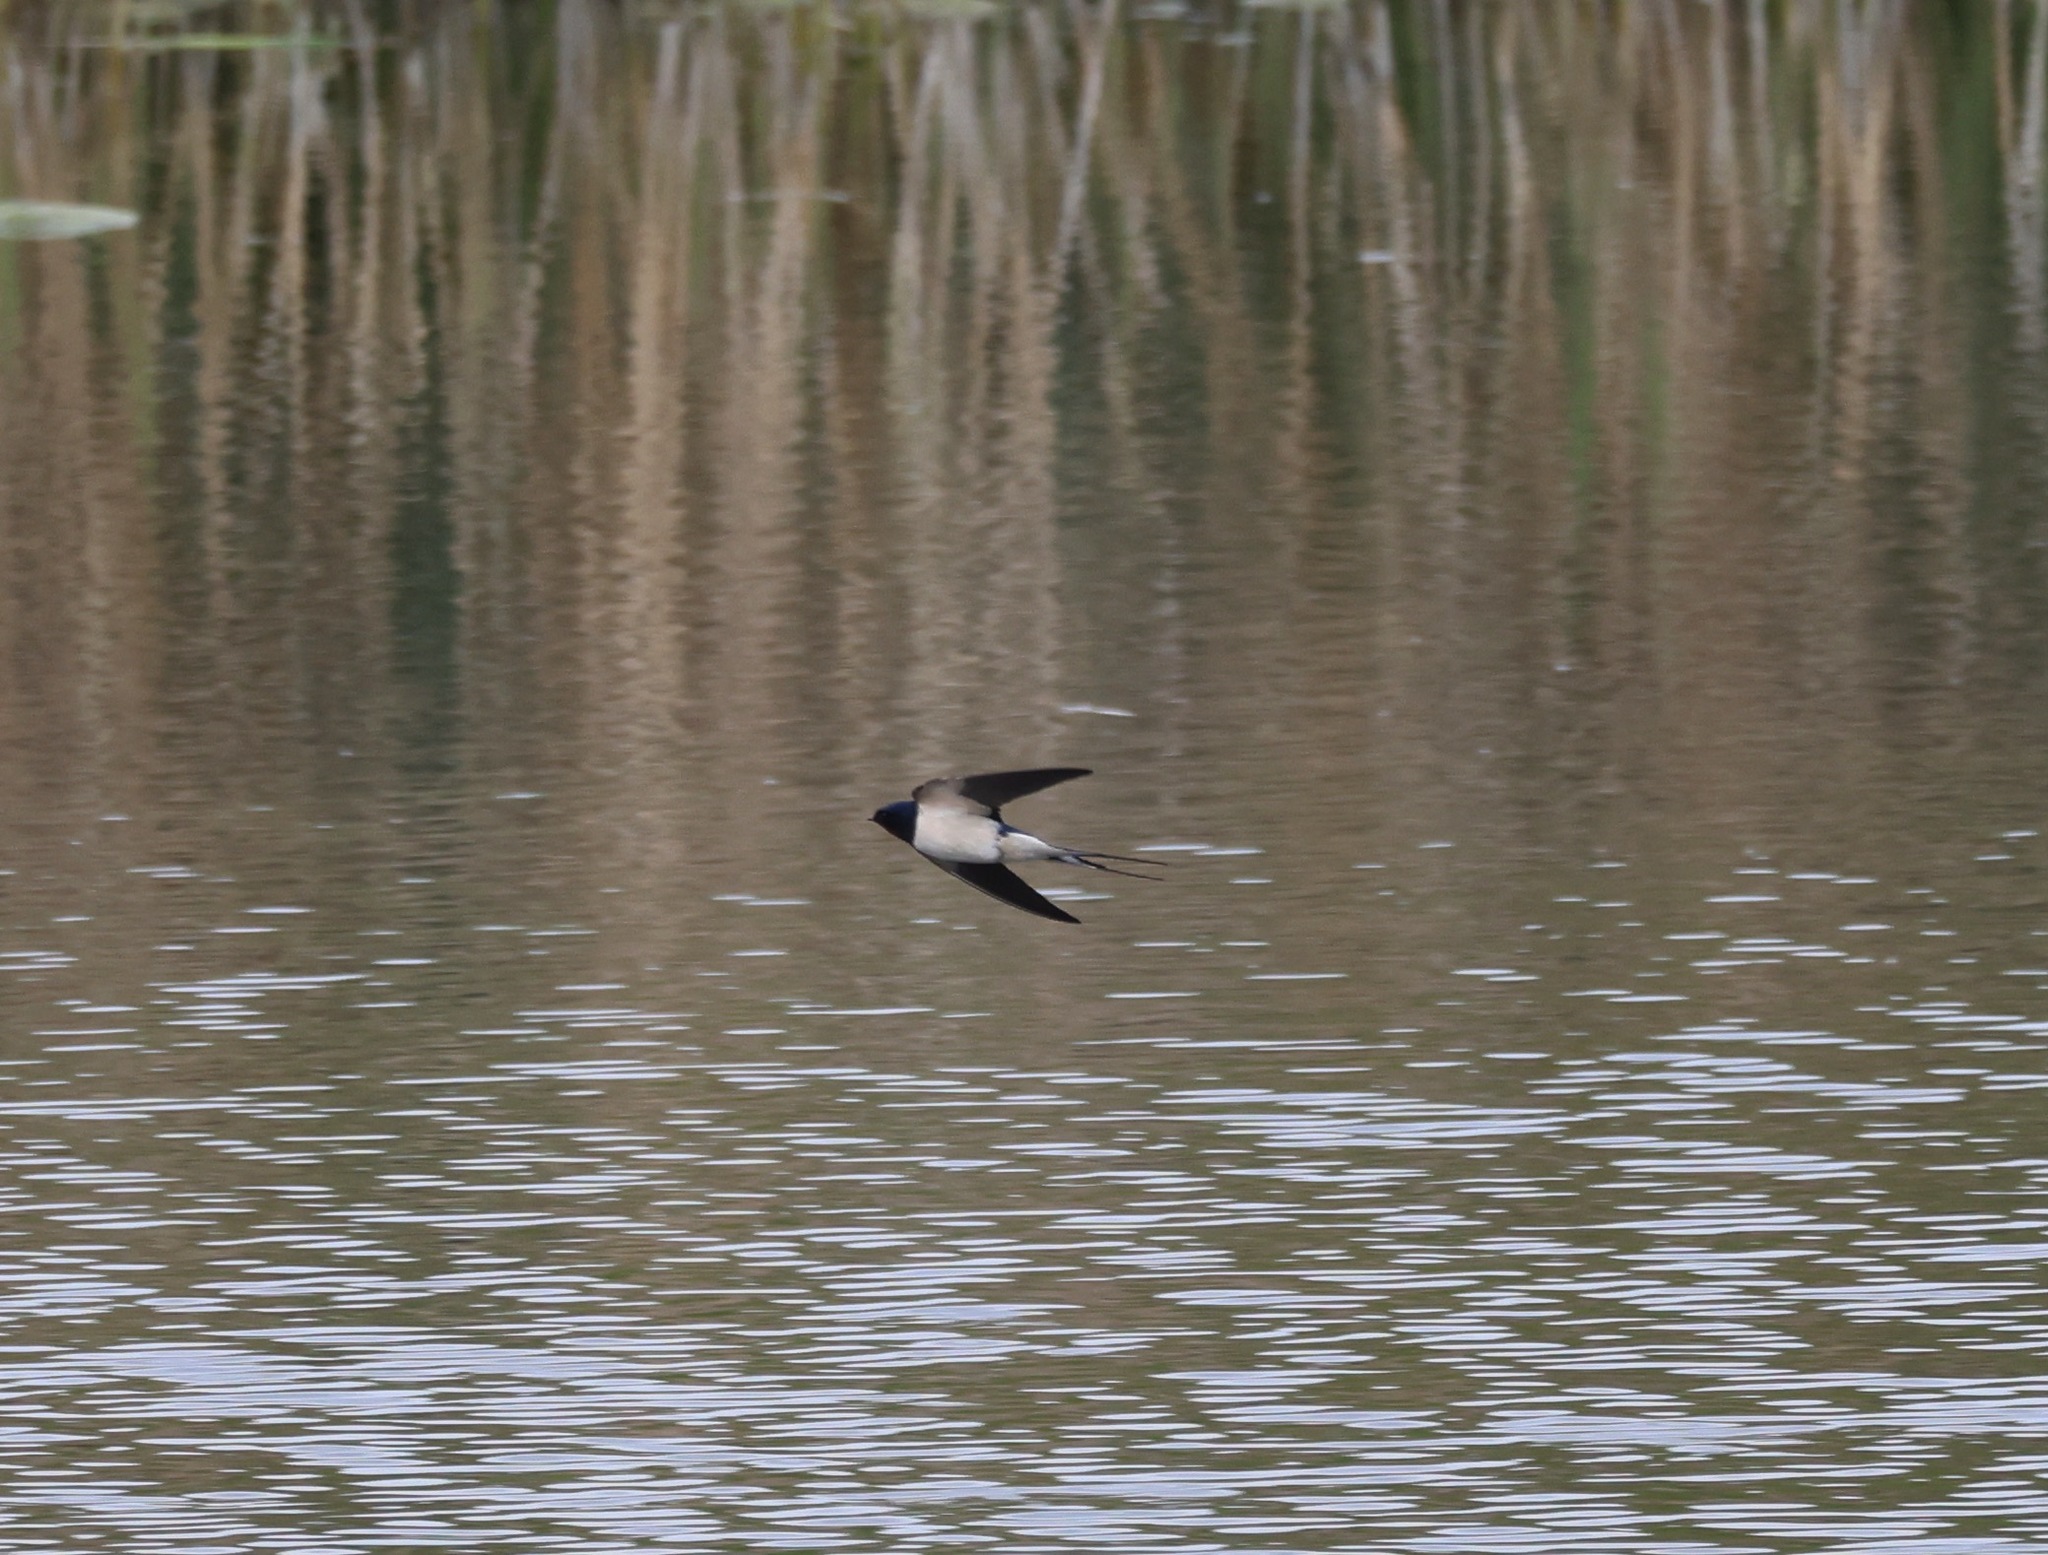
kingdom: Animalia
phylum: Chordata
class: Aves
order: Passeriformes
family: Hirundinidae
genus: Hirundo
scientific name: Hirundo rustica
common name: Barn swallow
